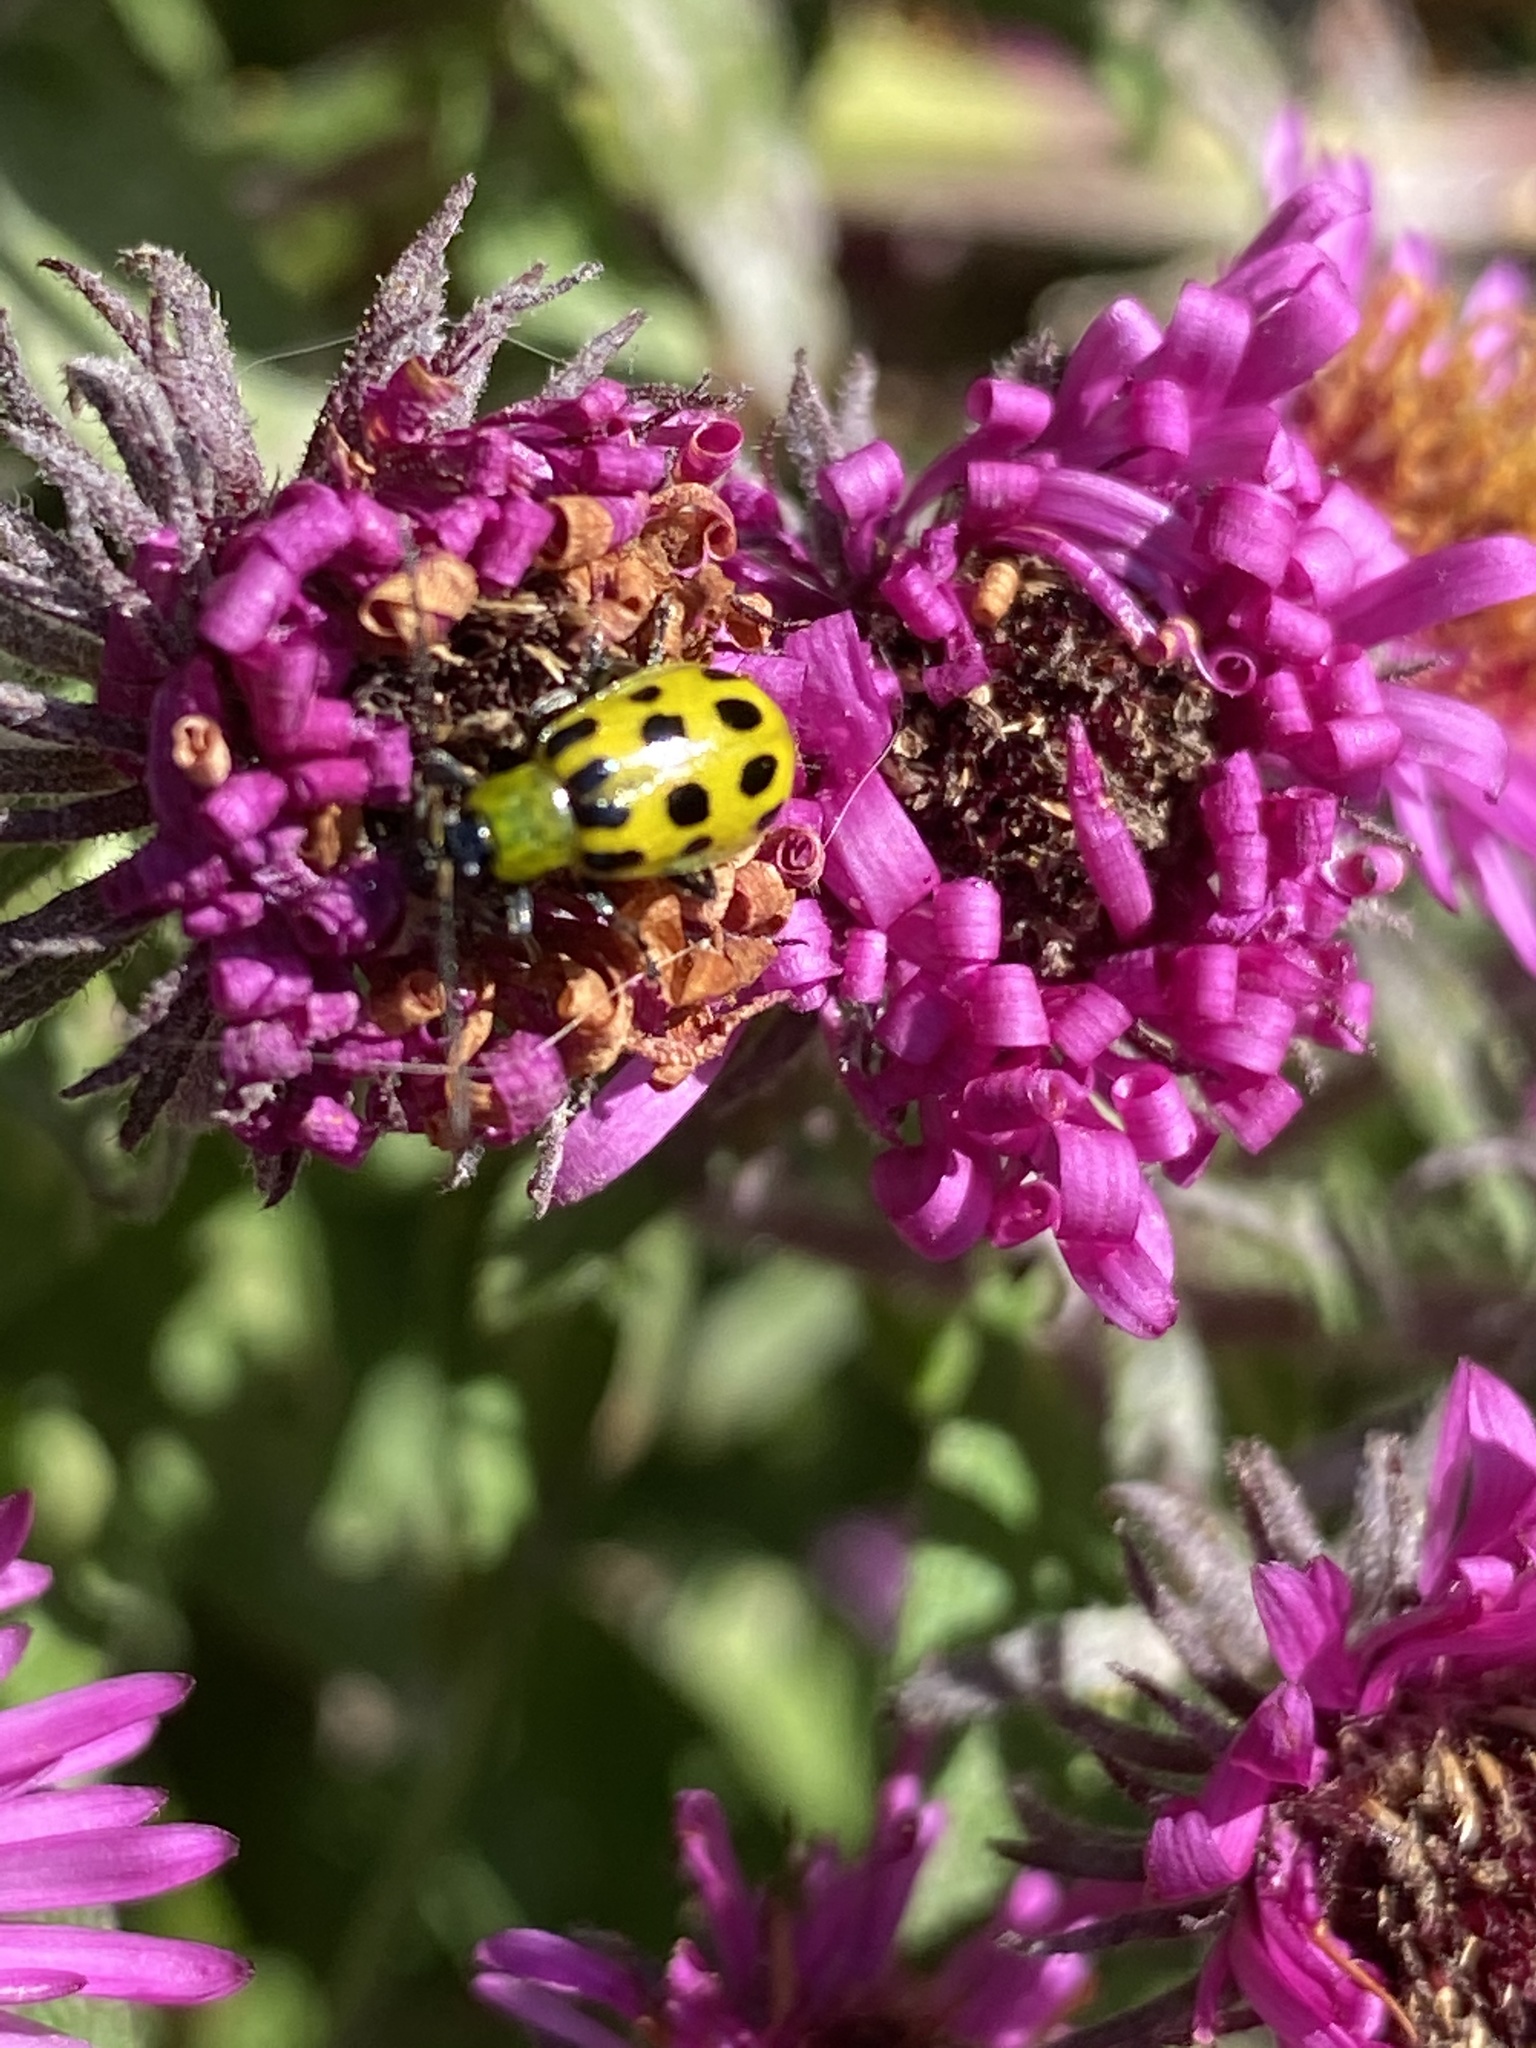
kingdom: Animalia
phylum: Arthropoda
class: Insecta
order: Coleoptera
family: Chrysomelidae
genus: Diabrotica
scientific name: Diabrotica undecimpunctata
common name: Spotted cucumber beetle
